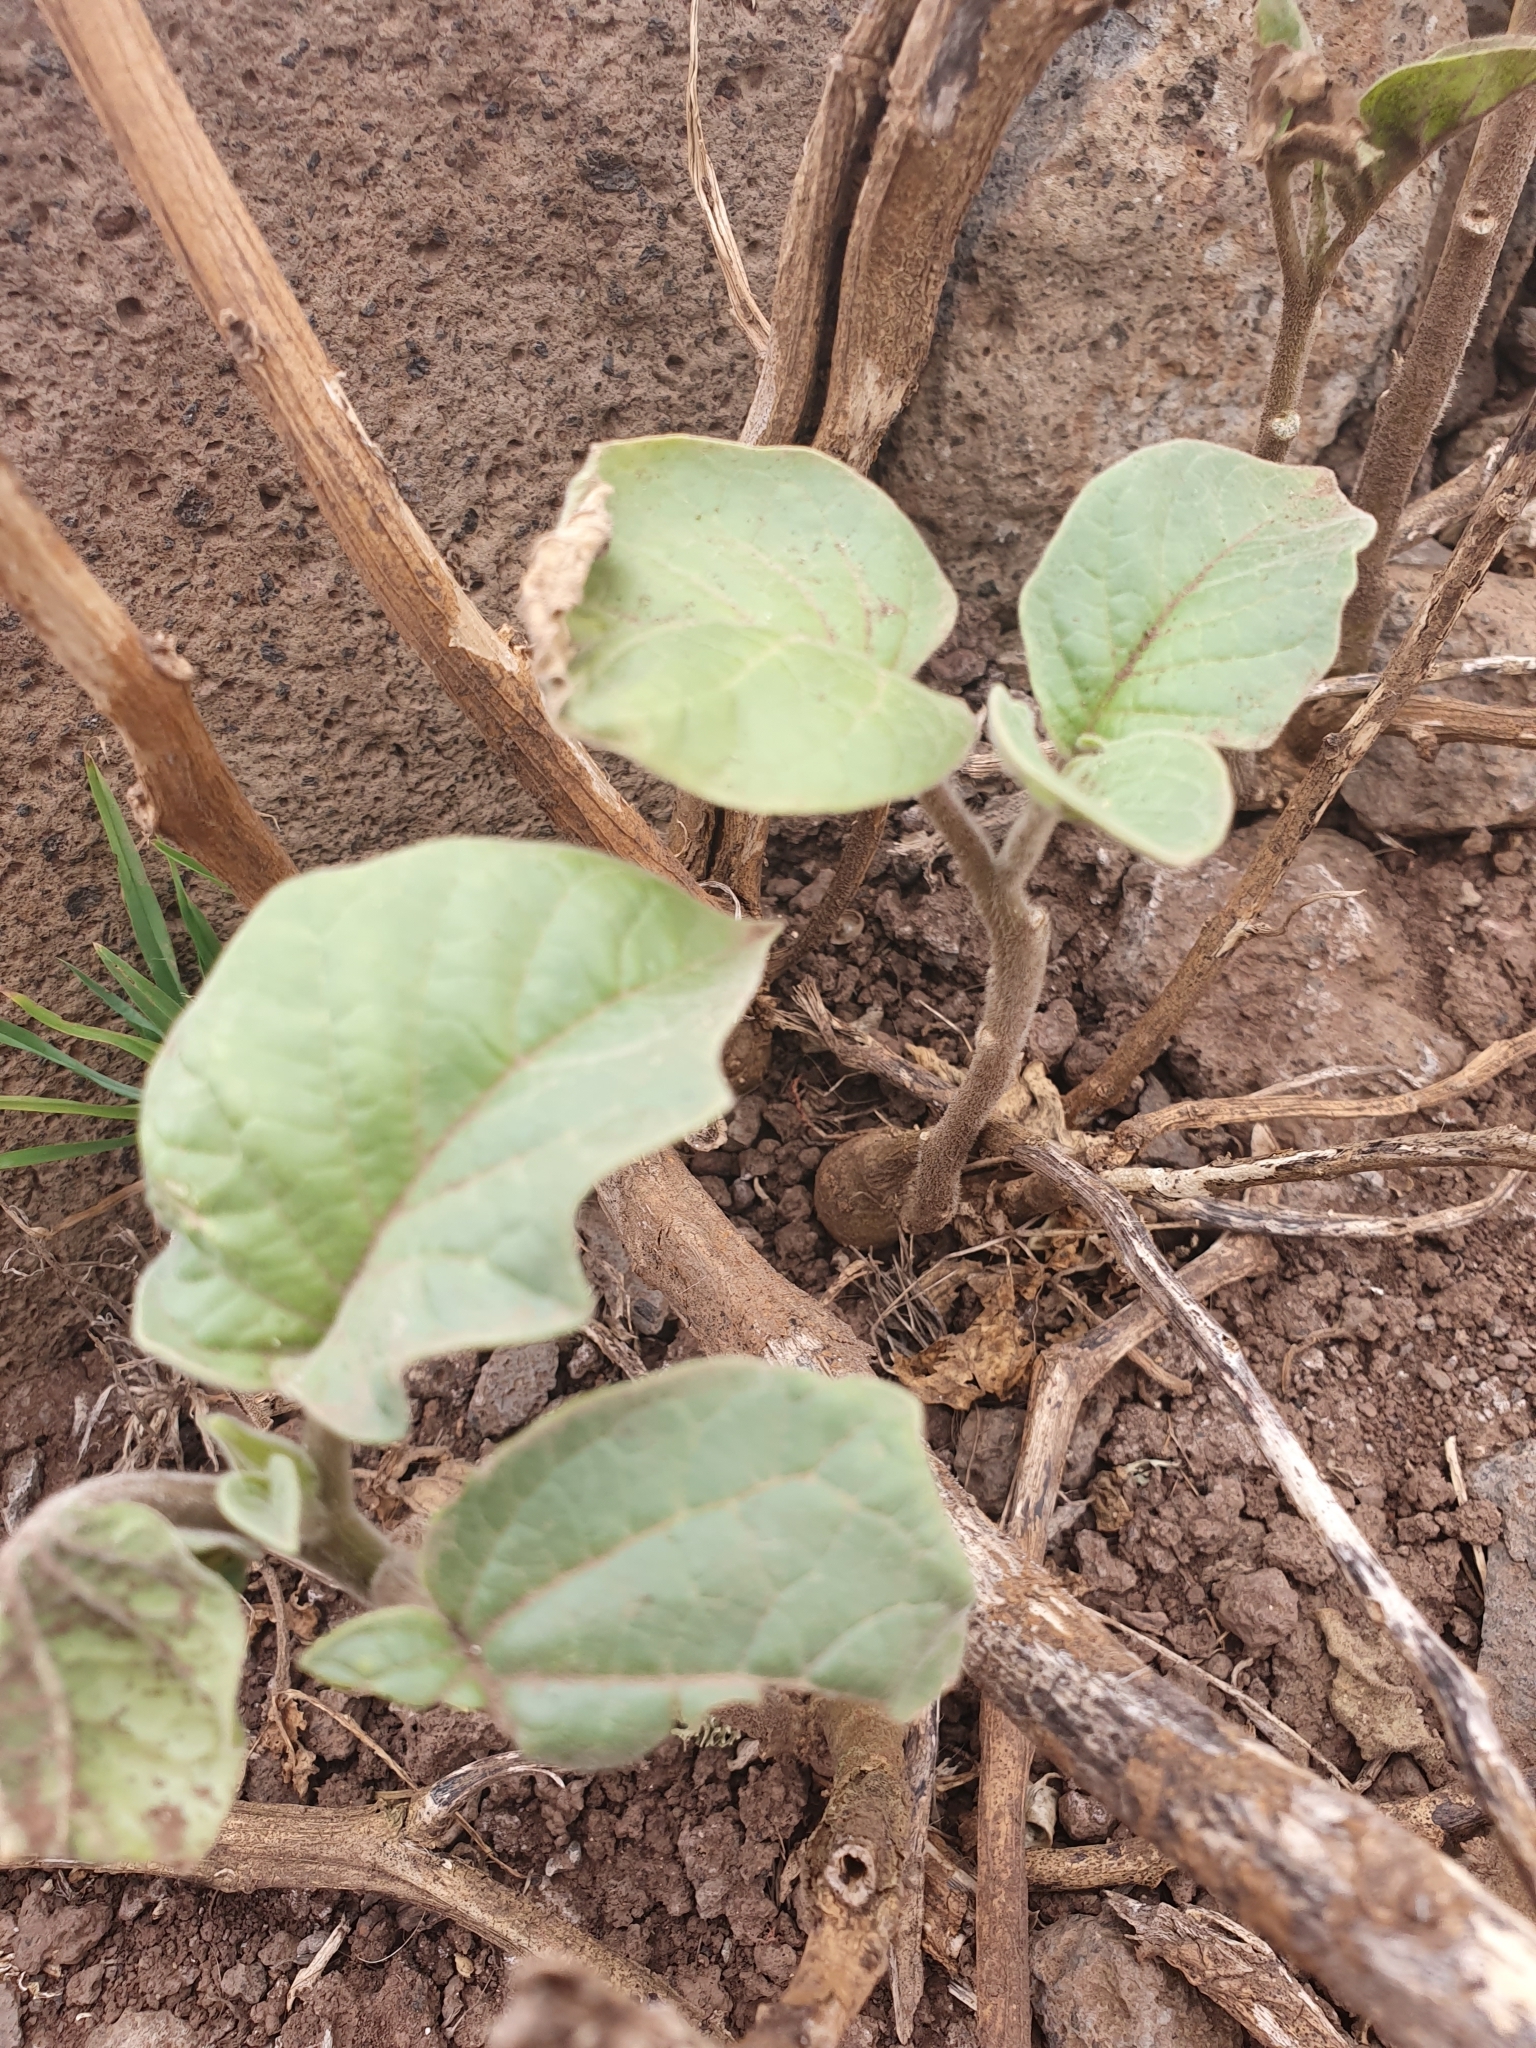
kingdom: Plantae
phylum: Tracheophyta
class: Magnoliopsida
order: Solanales
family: Solanaceae
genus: Datura
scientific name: Datura innoxia
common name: Downy thorn-apple
